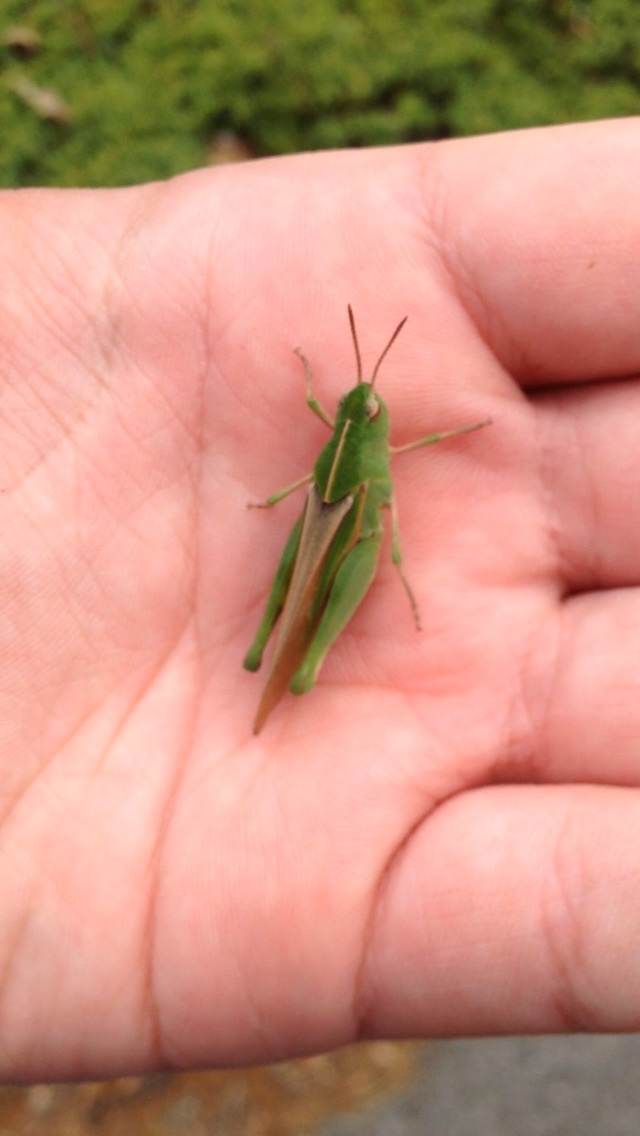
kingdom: Animalia
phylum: Arthropoda
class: Insecta
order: Orthoptera
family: Acrididae
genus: Chortophaga
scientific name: Chortophaga viridifasciata
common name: Green-striped grasshopper
